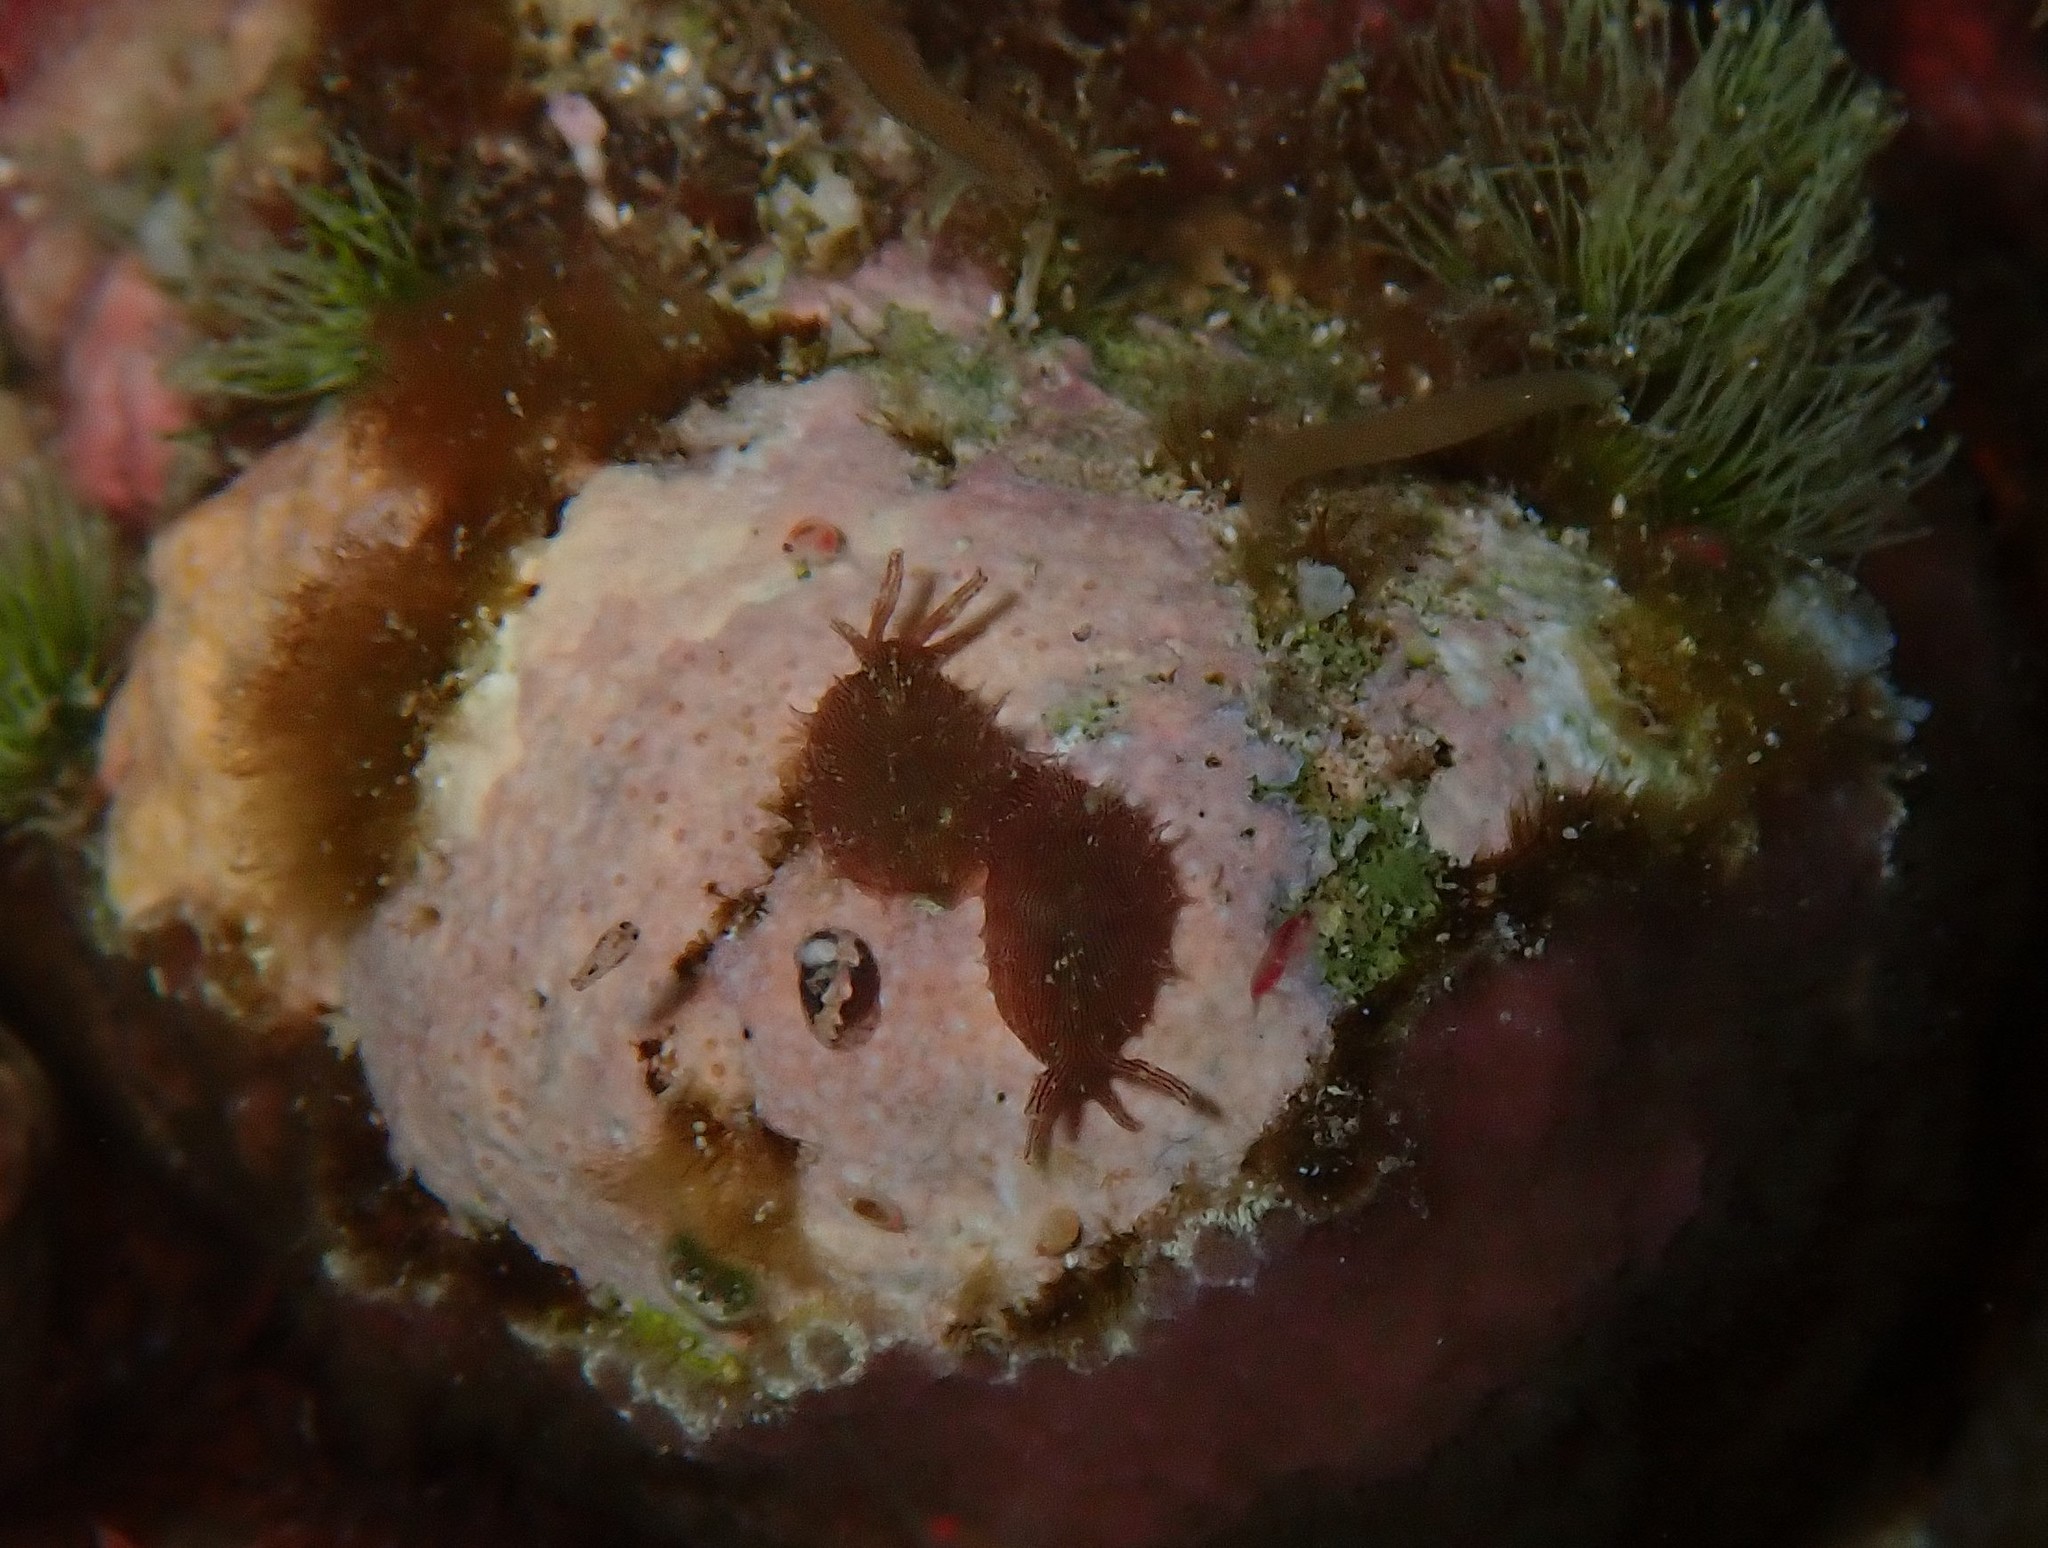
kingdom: Animalia
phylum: Mollusca
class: Gastropoda
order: Aplysiida
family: Aplysiidae
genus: Stylocheilus
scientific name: Stylocheilus striatus
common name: Striated seahare
